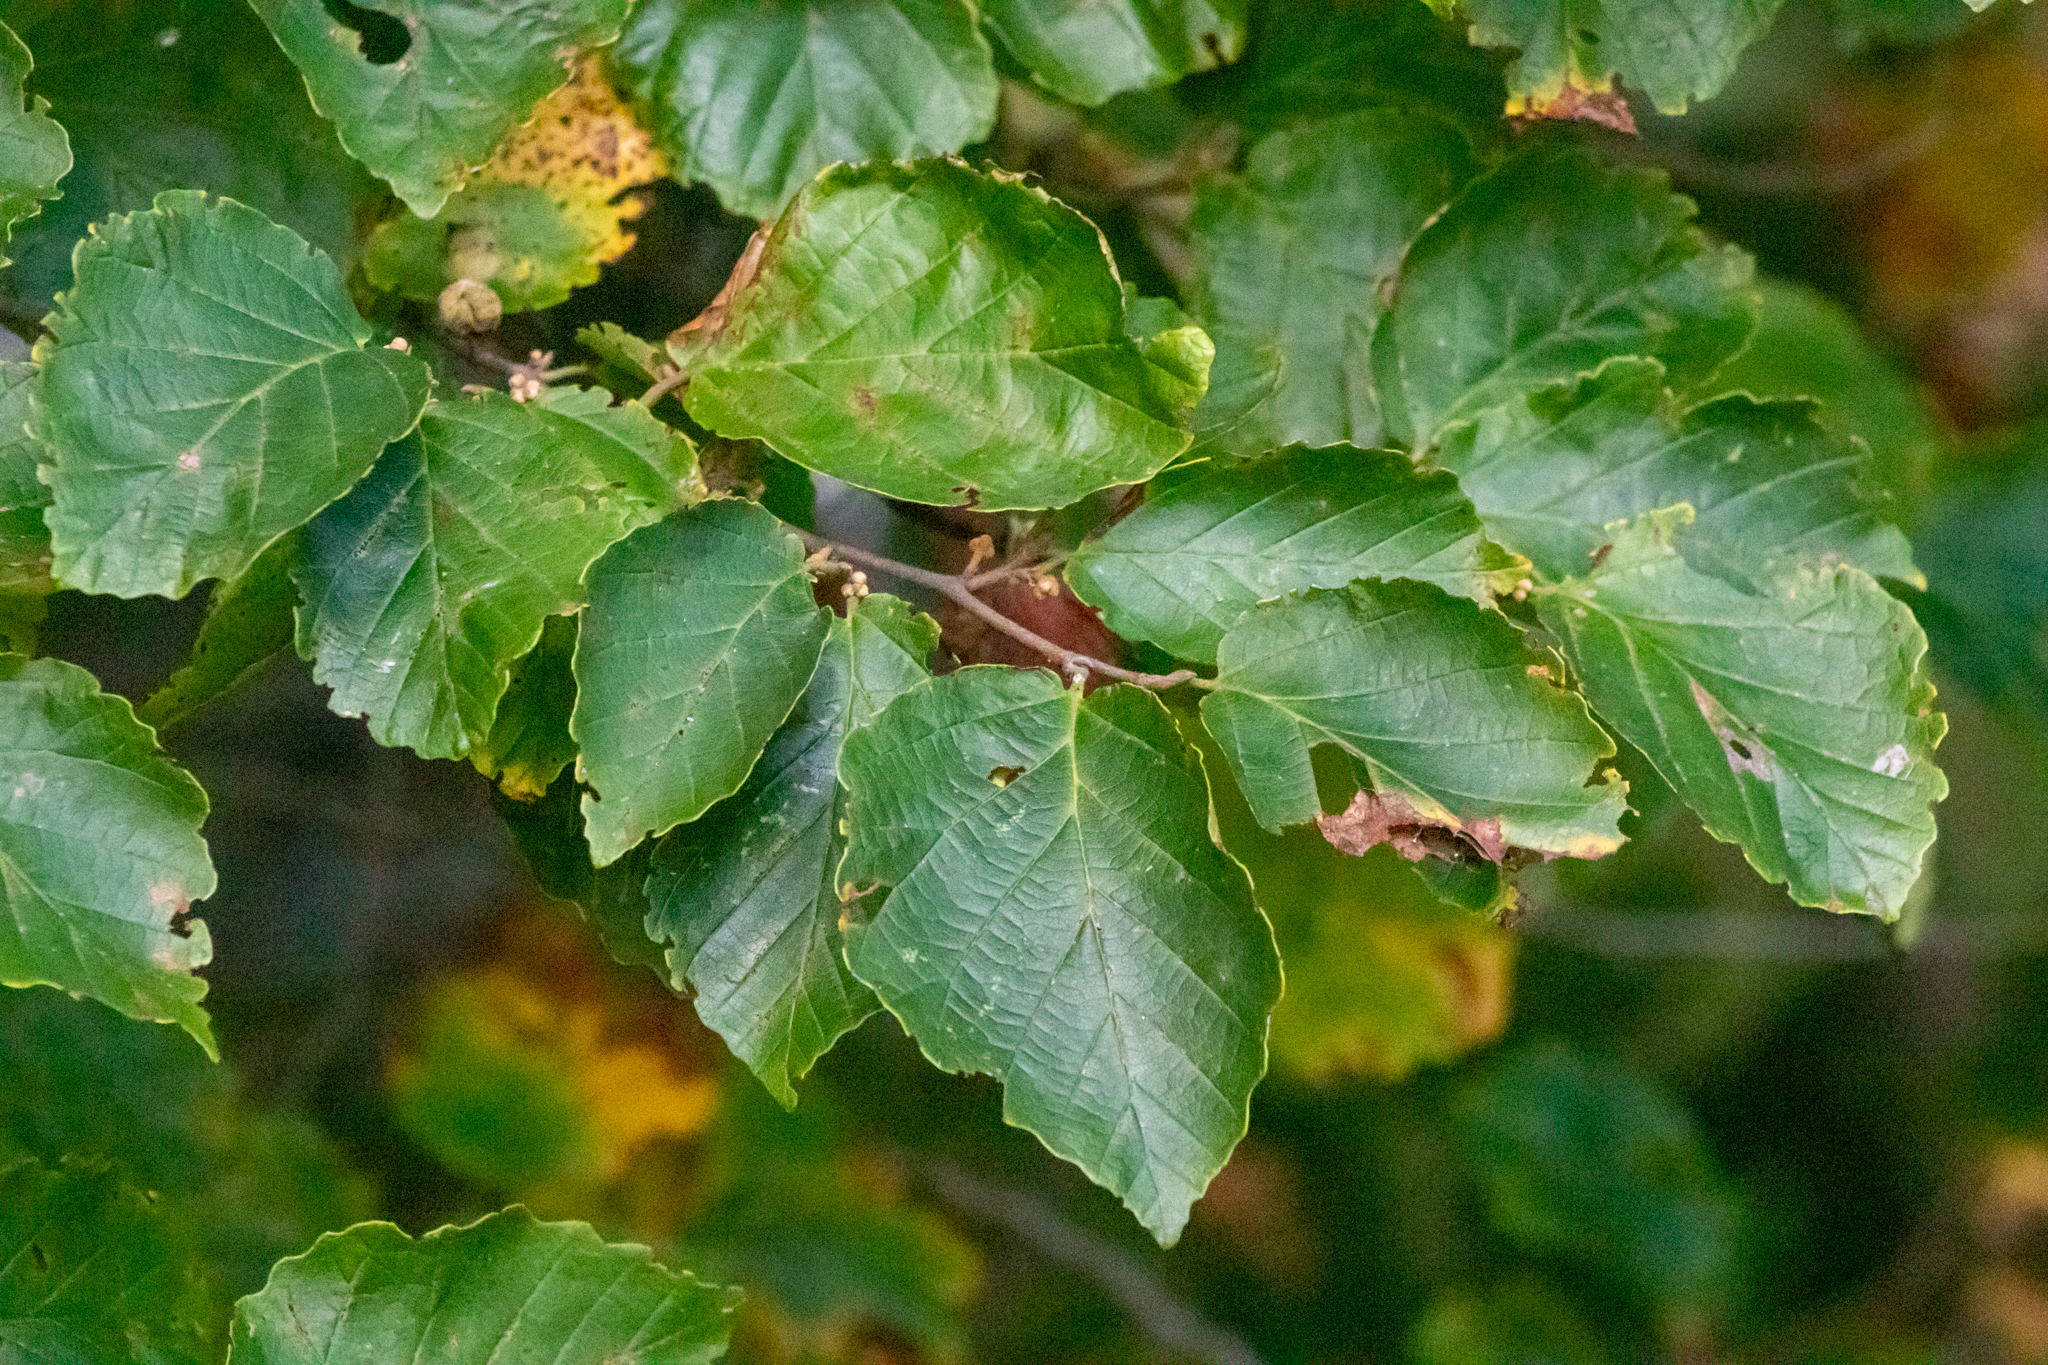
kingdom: Plantae
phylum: Tracheophyta
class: Magnoliopsida
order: Saxifragales
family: Hamamelidaceae
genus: Hamamelis
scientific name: Hamamelis virginiana
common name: Witch-hazel
